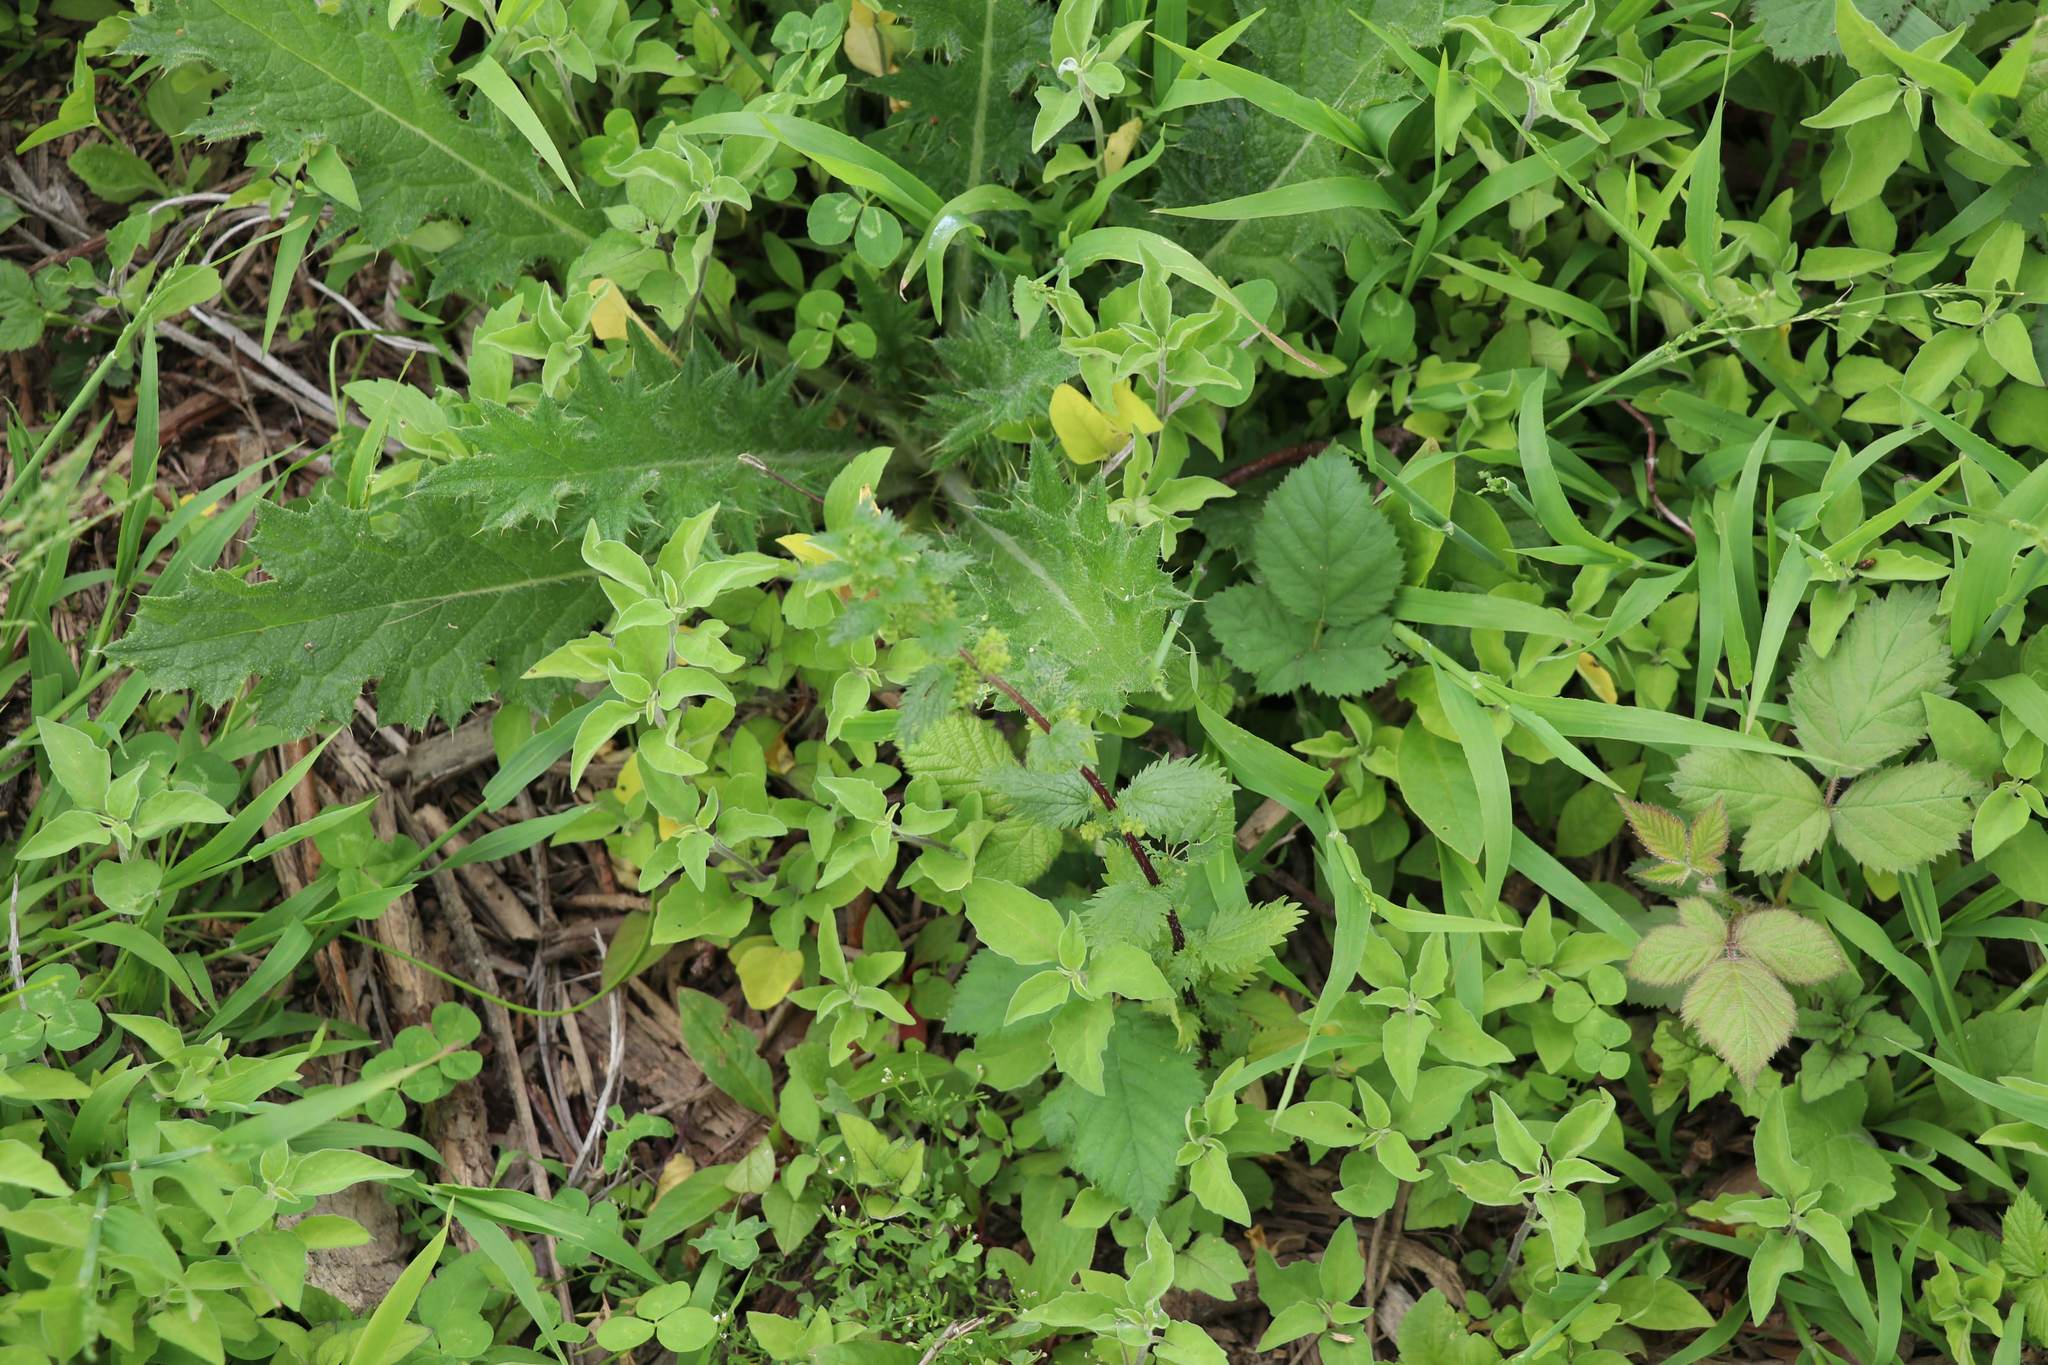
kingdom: Plantae
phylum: Tracheophyta
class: Magnoliopsida
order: Rosales
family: Urticaceae
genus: Urtica
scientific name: Urtica urens
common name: Dwarf nettle
